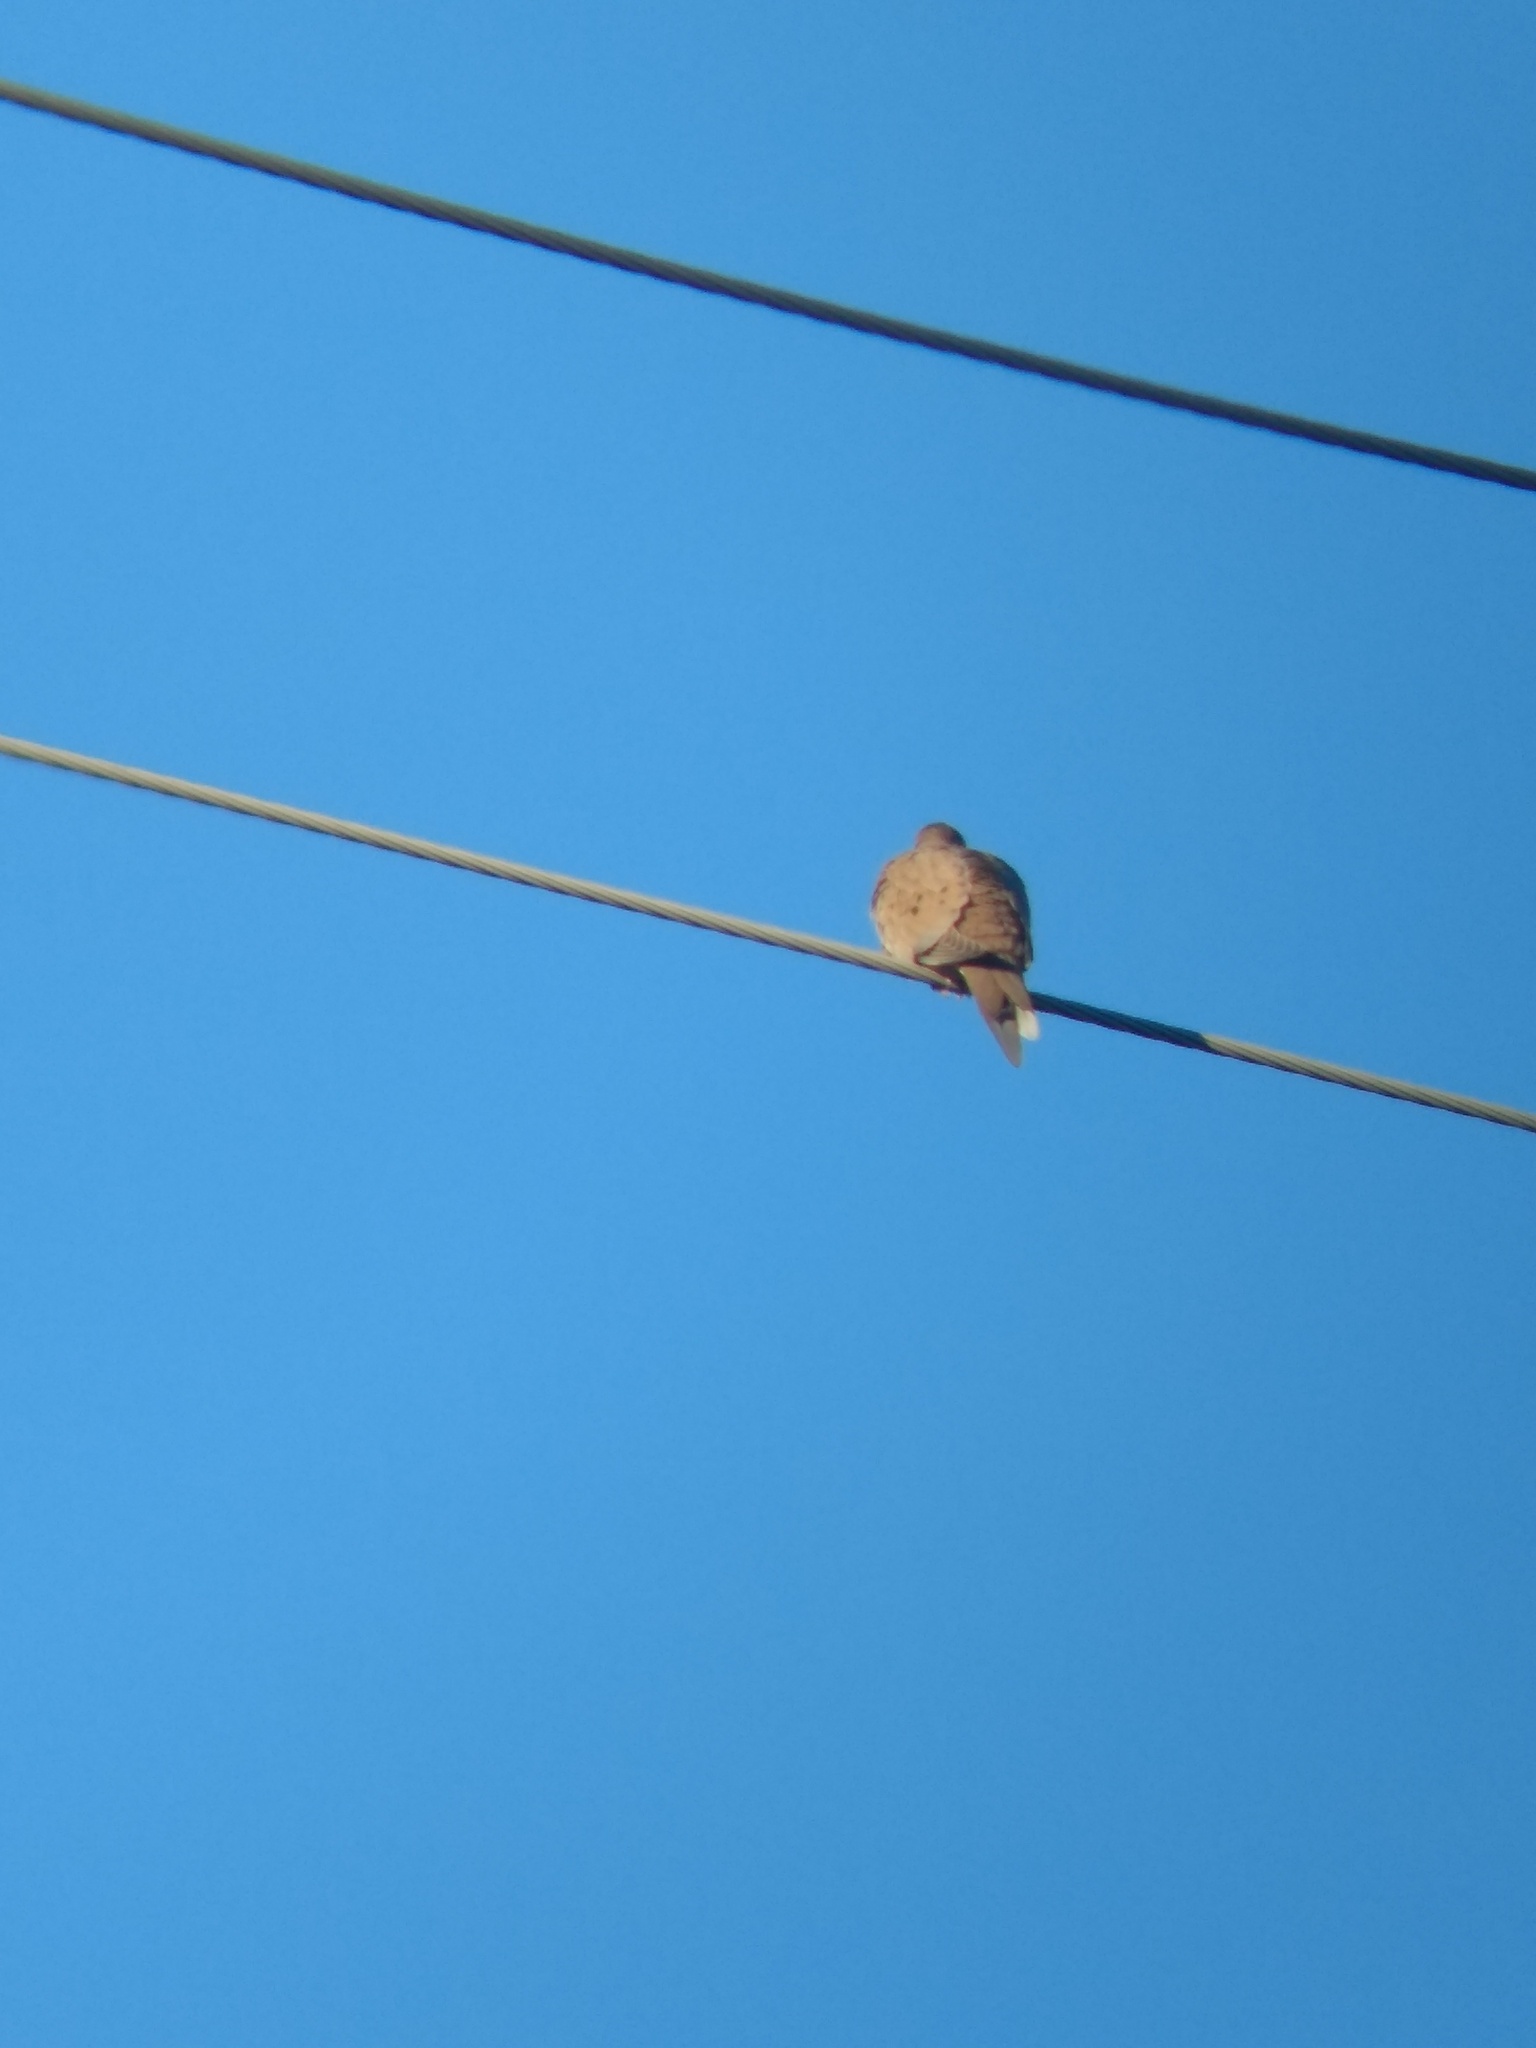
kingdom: Animalia
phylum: Chordata
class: Aves
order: Columbiformes
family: Columbidae
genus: Zenaida
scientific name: Zenaida macroura
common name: Mourning dove
